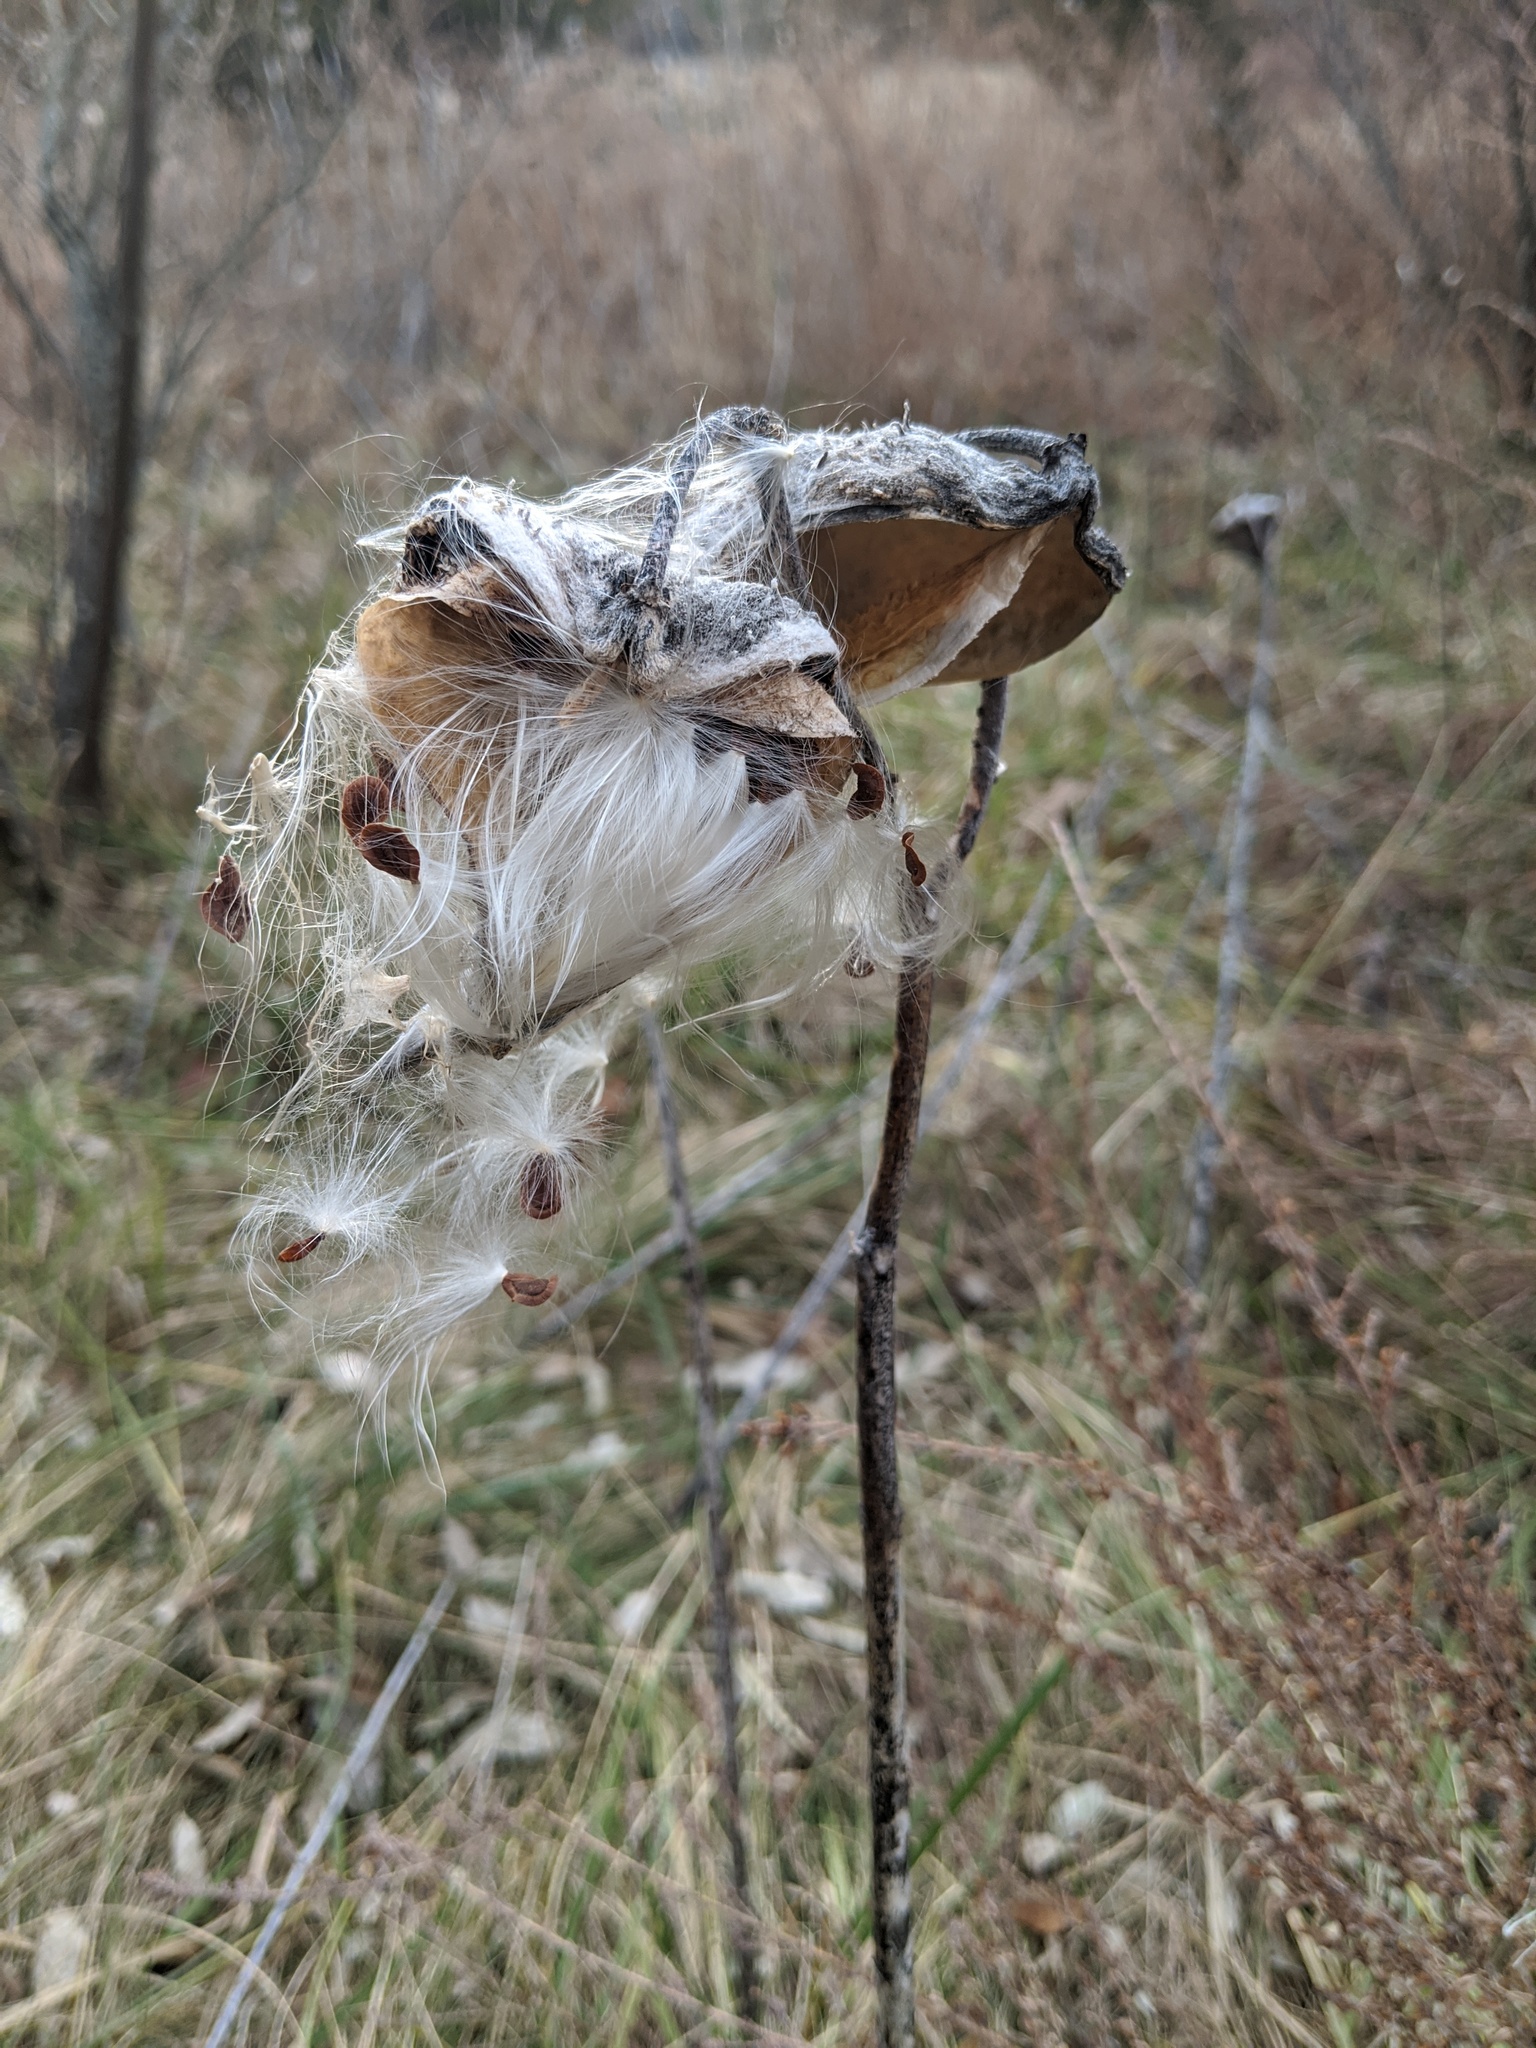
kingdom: Plantae
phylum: Tracheophyta
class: Magnoliopsida
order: Gentianales
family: Apocynaceae
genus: Asclepias
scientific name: Asclepias syriaca
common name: Common milkweed
